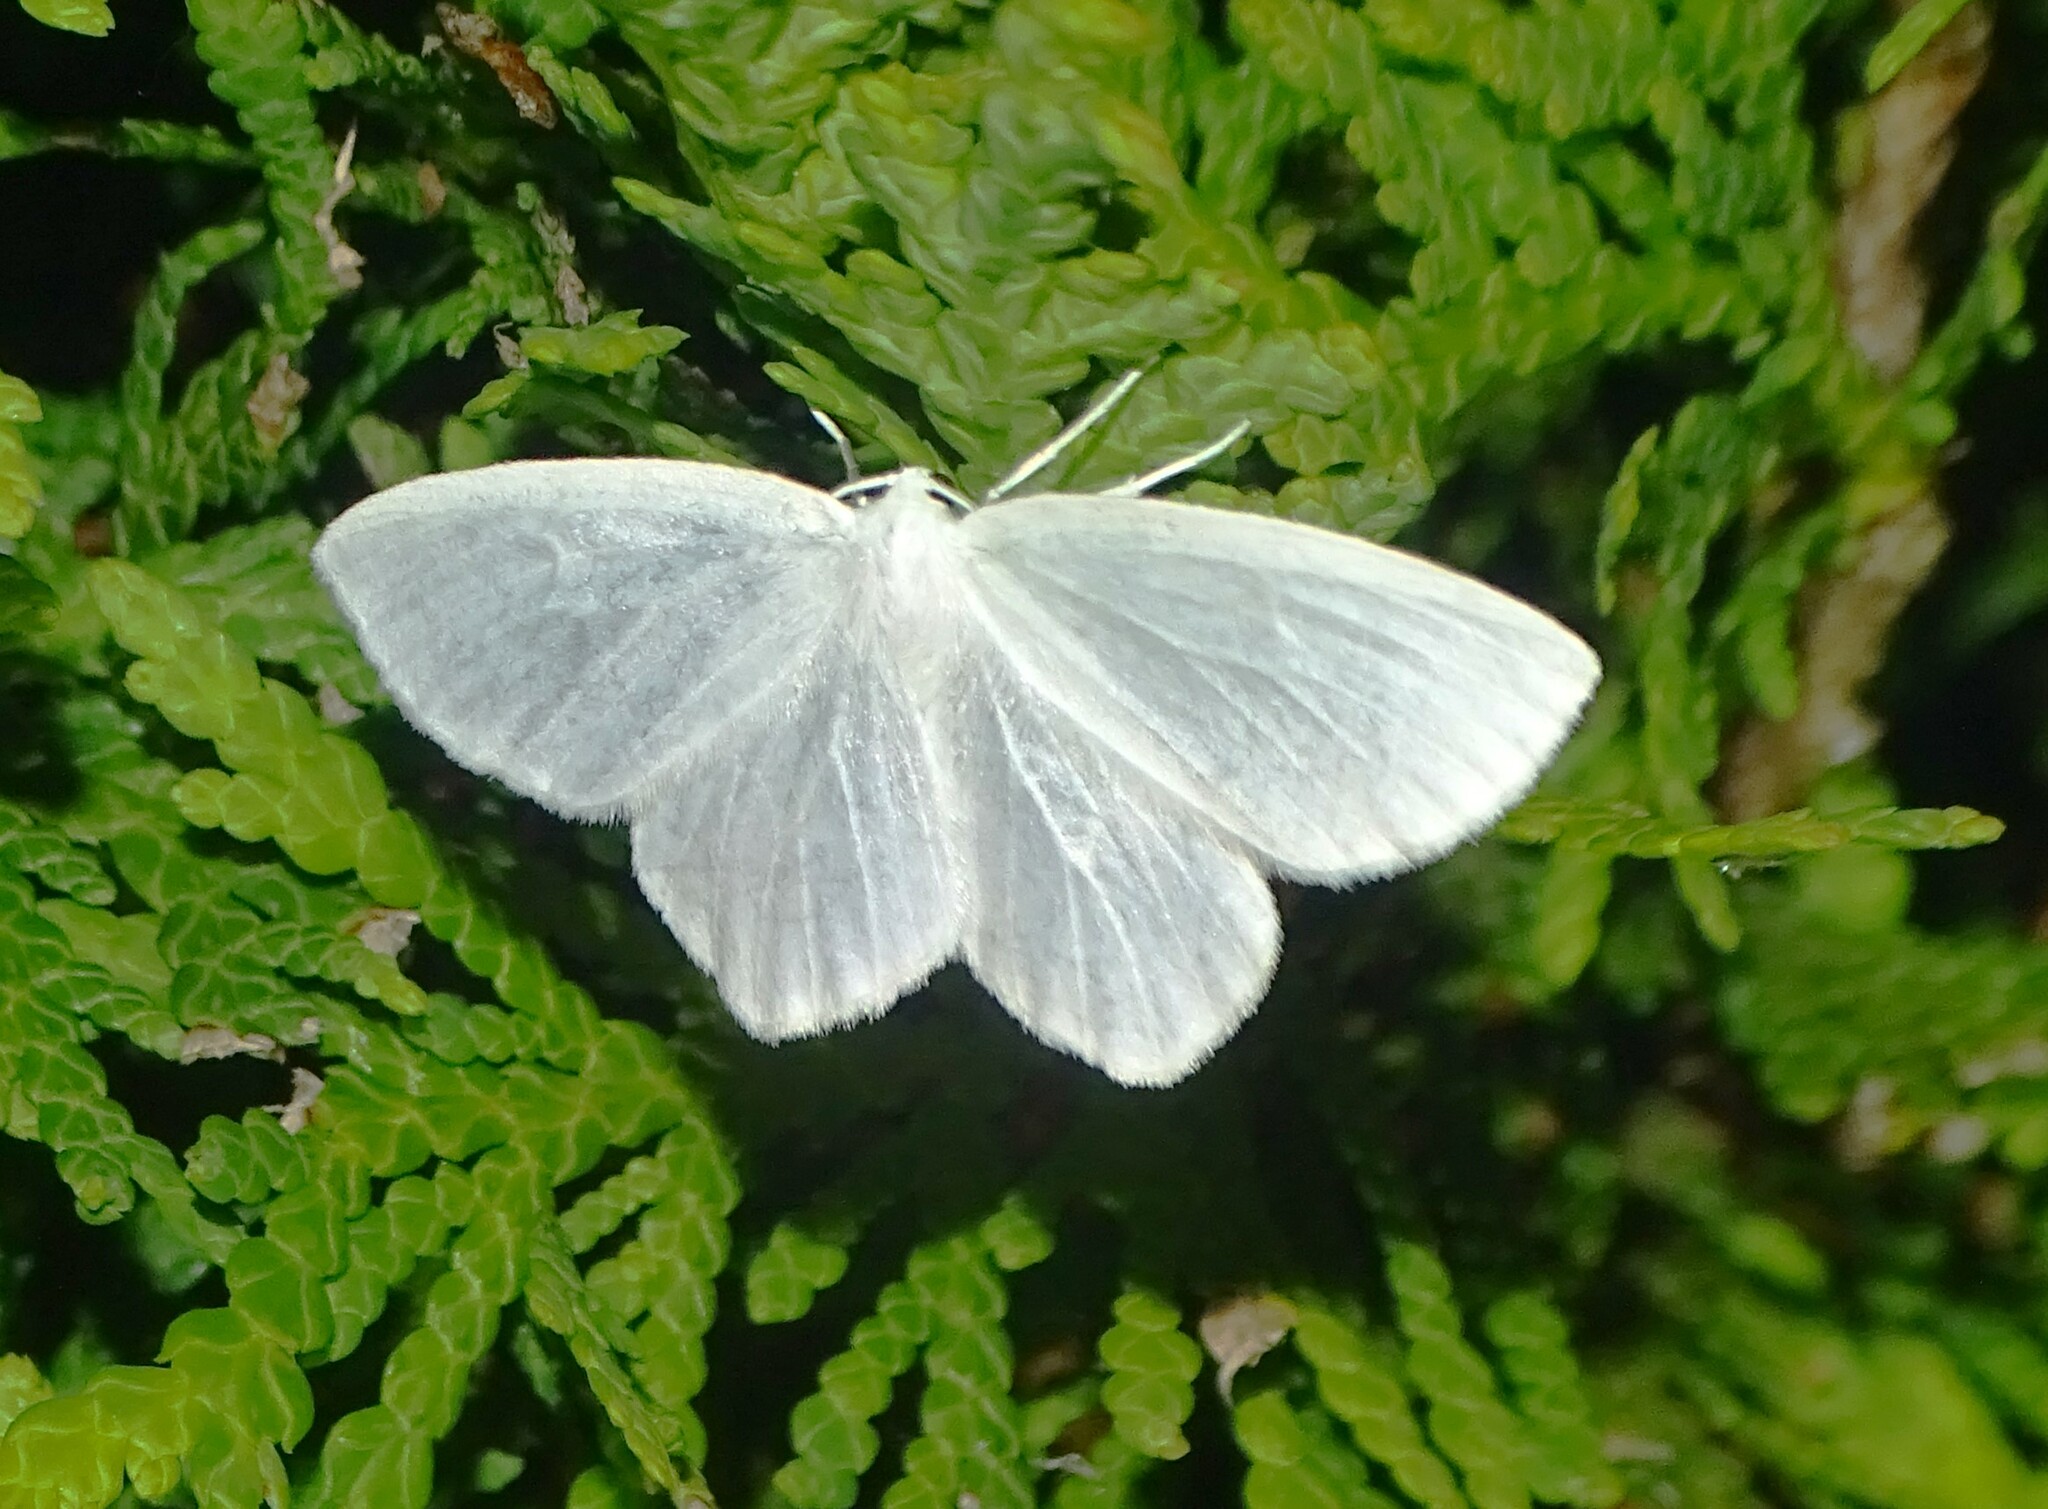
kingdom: Animalia
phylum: Arthropoda
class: Insecta
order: Lepidoptera
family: Geometridae
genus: Eugonobapta
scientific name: Eugonobapta nivosaria
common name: Snowy geometer
